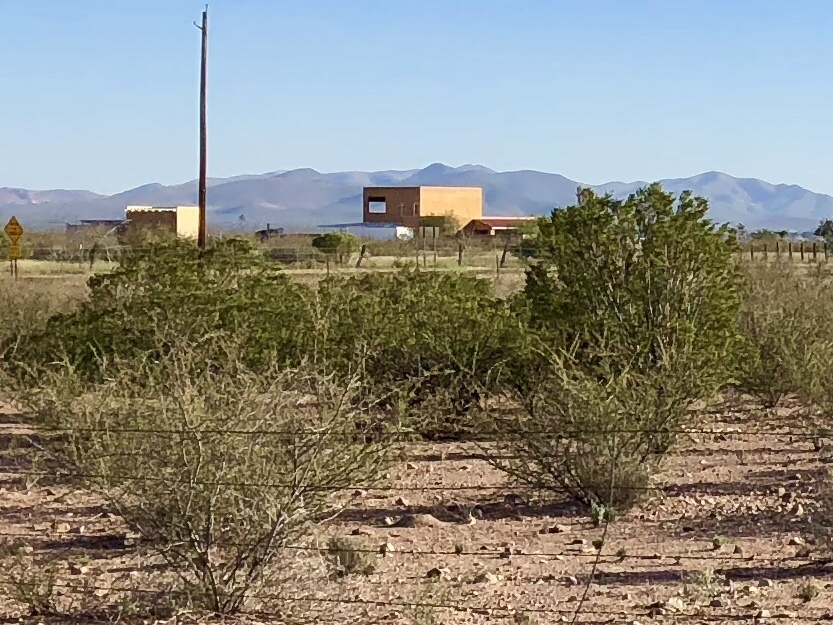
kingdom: Plantae
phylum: Tracheophyta
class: Magnoliopsida
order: Zygophyllales
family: Zygophyllaceae
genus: Larrea
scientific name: Larrea tridentata
